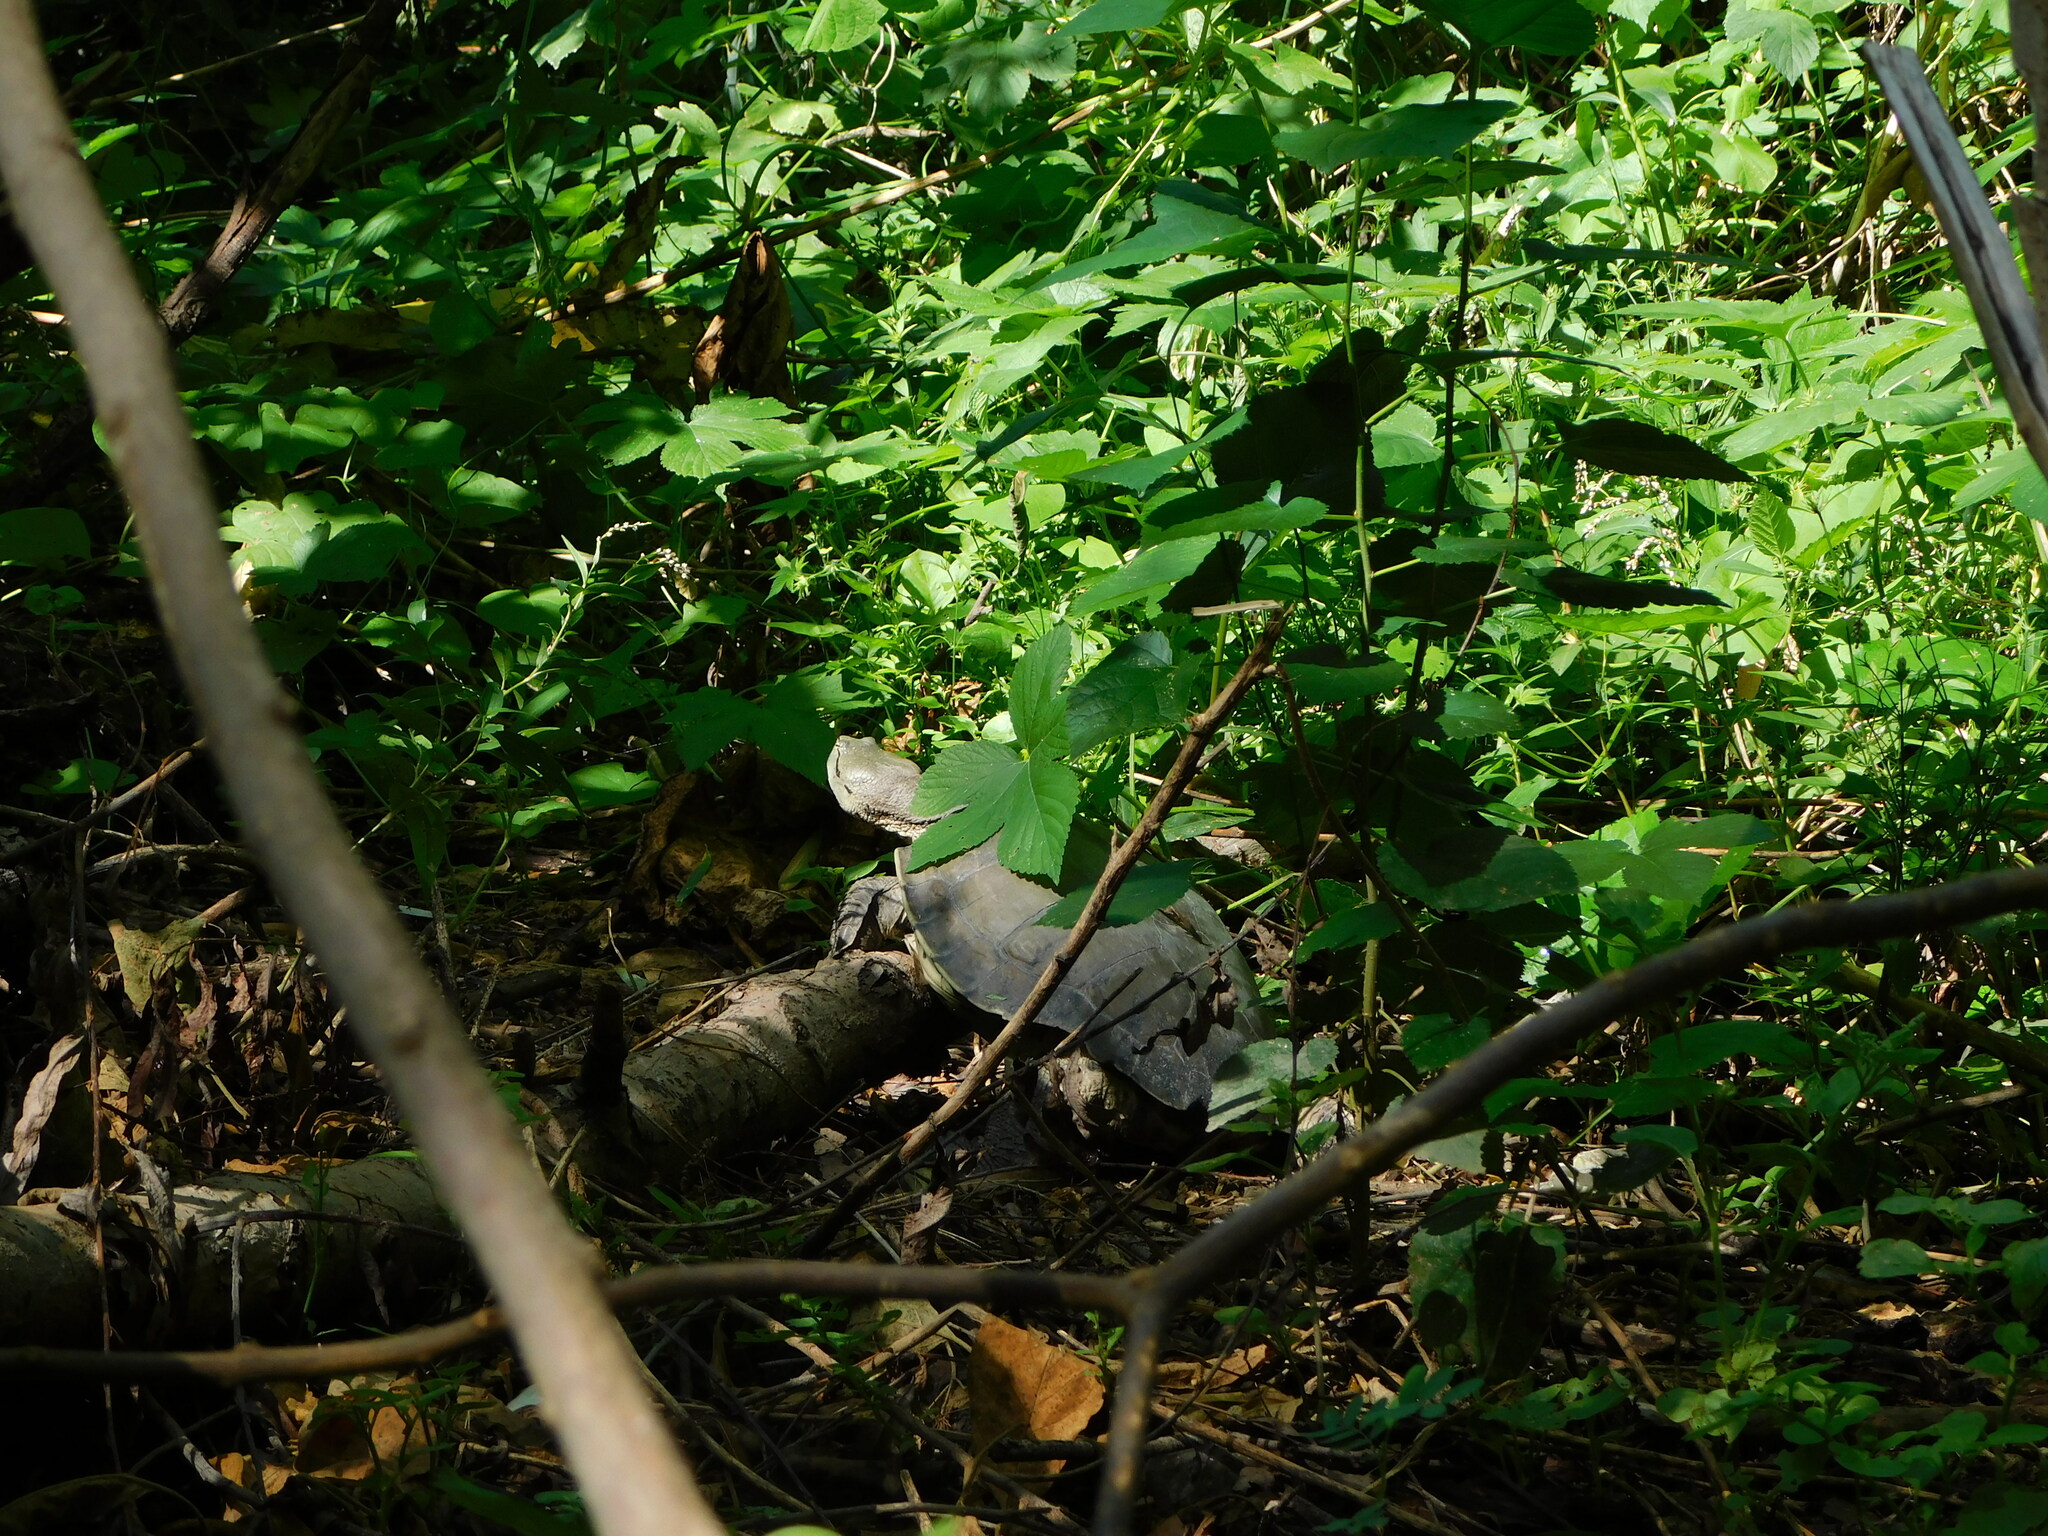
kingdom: Animalia
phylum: Chordata
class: Testudines
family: Chelidae
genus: Phrynops
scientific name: Phrynops hilarii
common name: Side-necked turtle of saint hillaire
